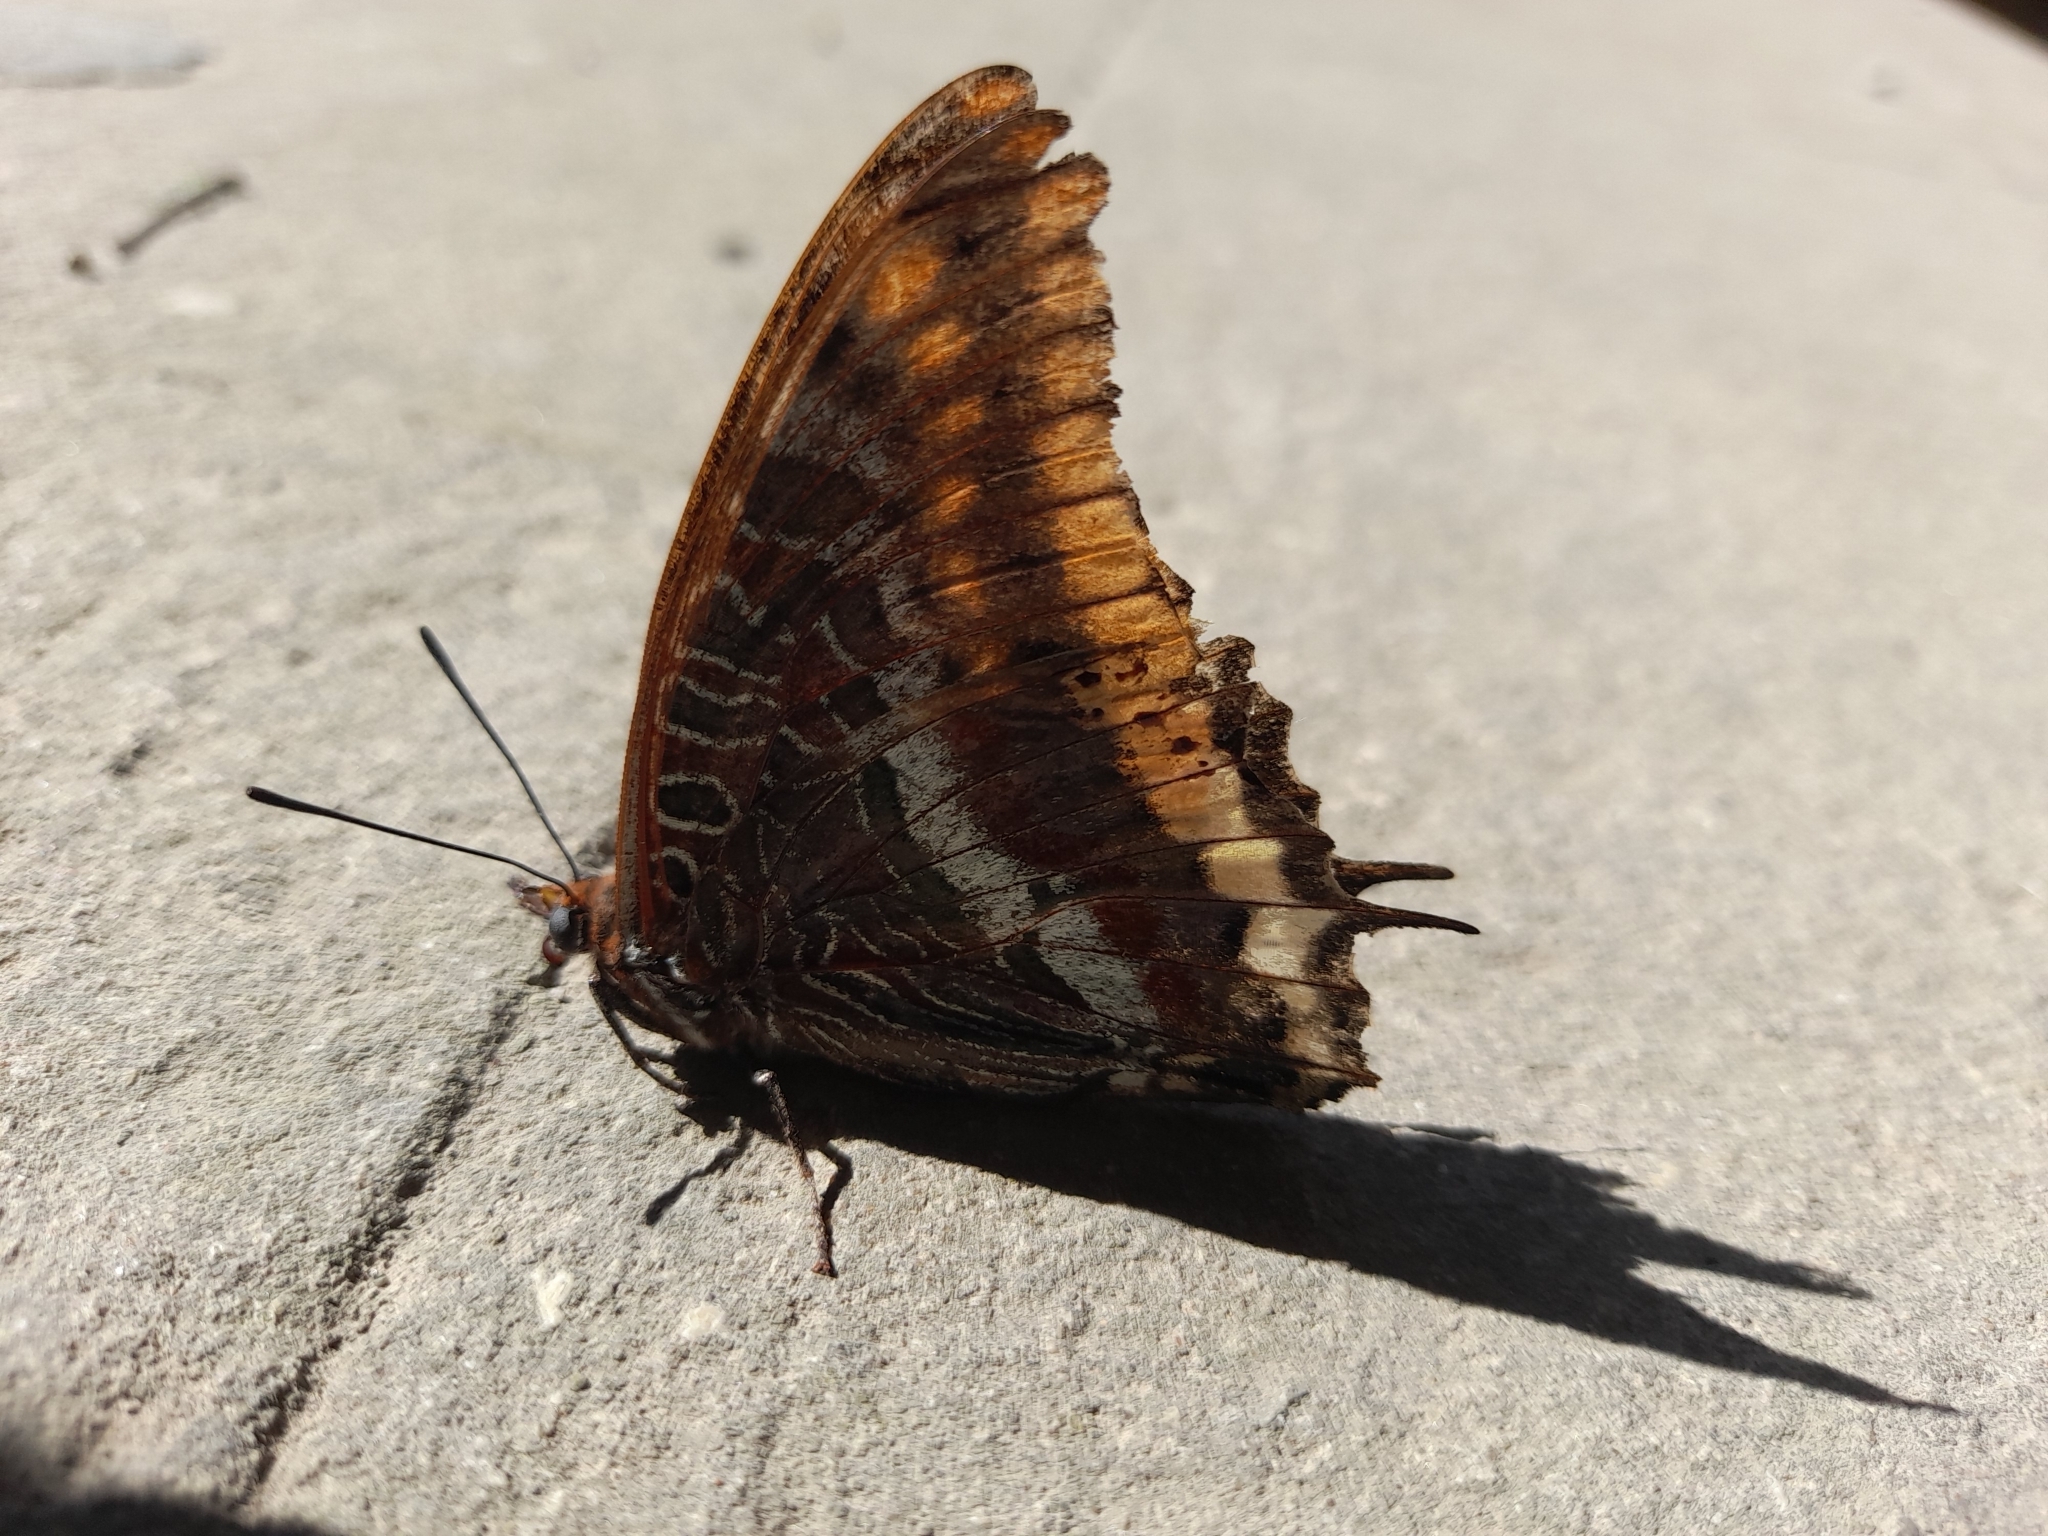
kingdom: Animalia
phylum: Arthropoda
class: Insecta
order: Lepidoptera
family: Nymphalidae
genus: Charaxes
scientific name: Charaxes jasius
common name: Two tailed pasha
